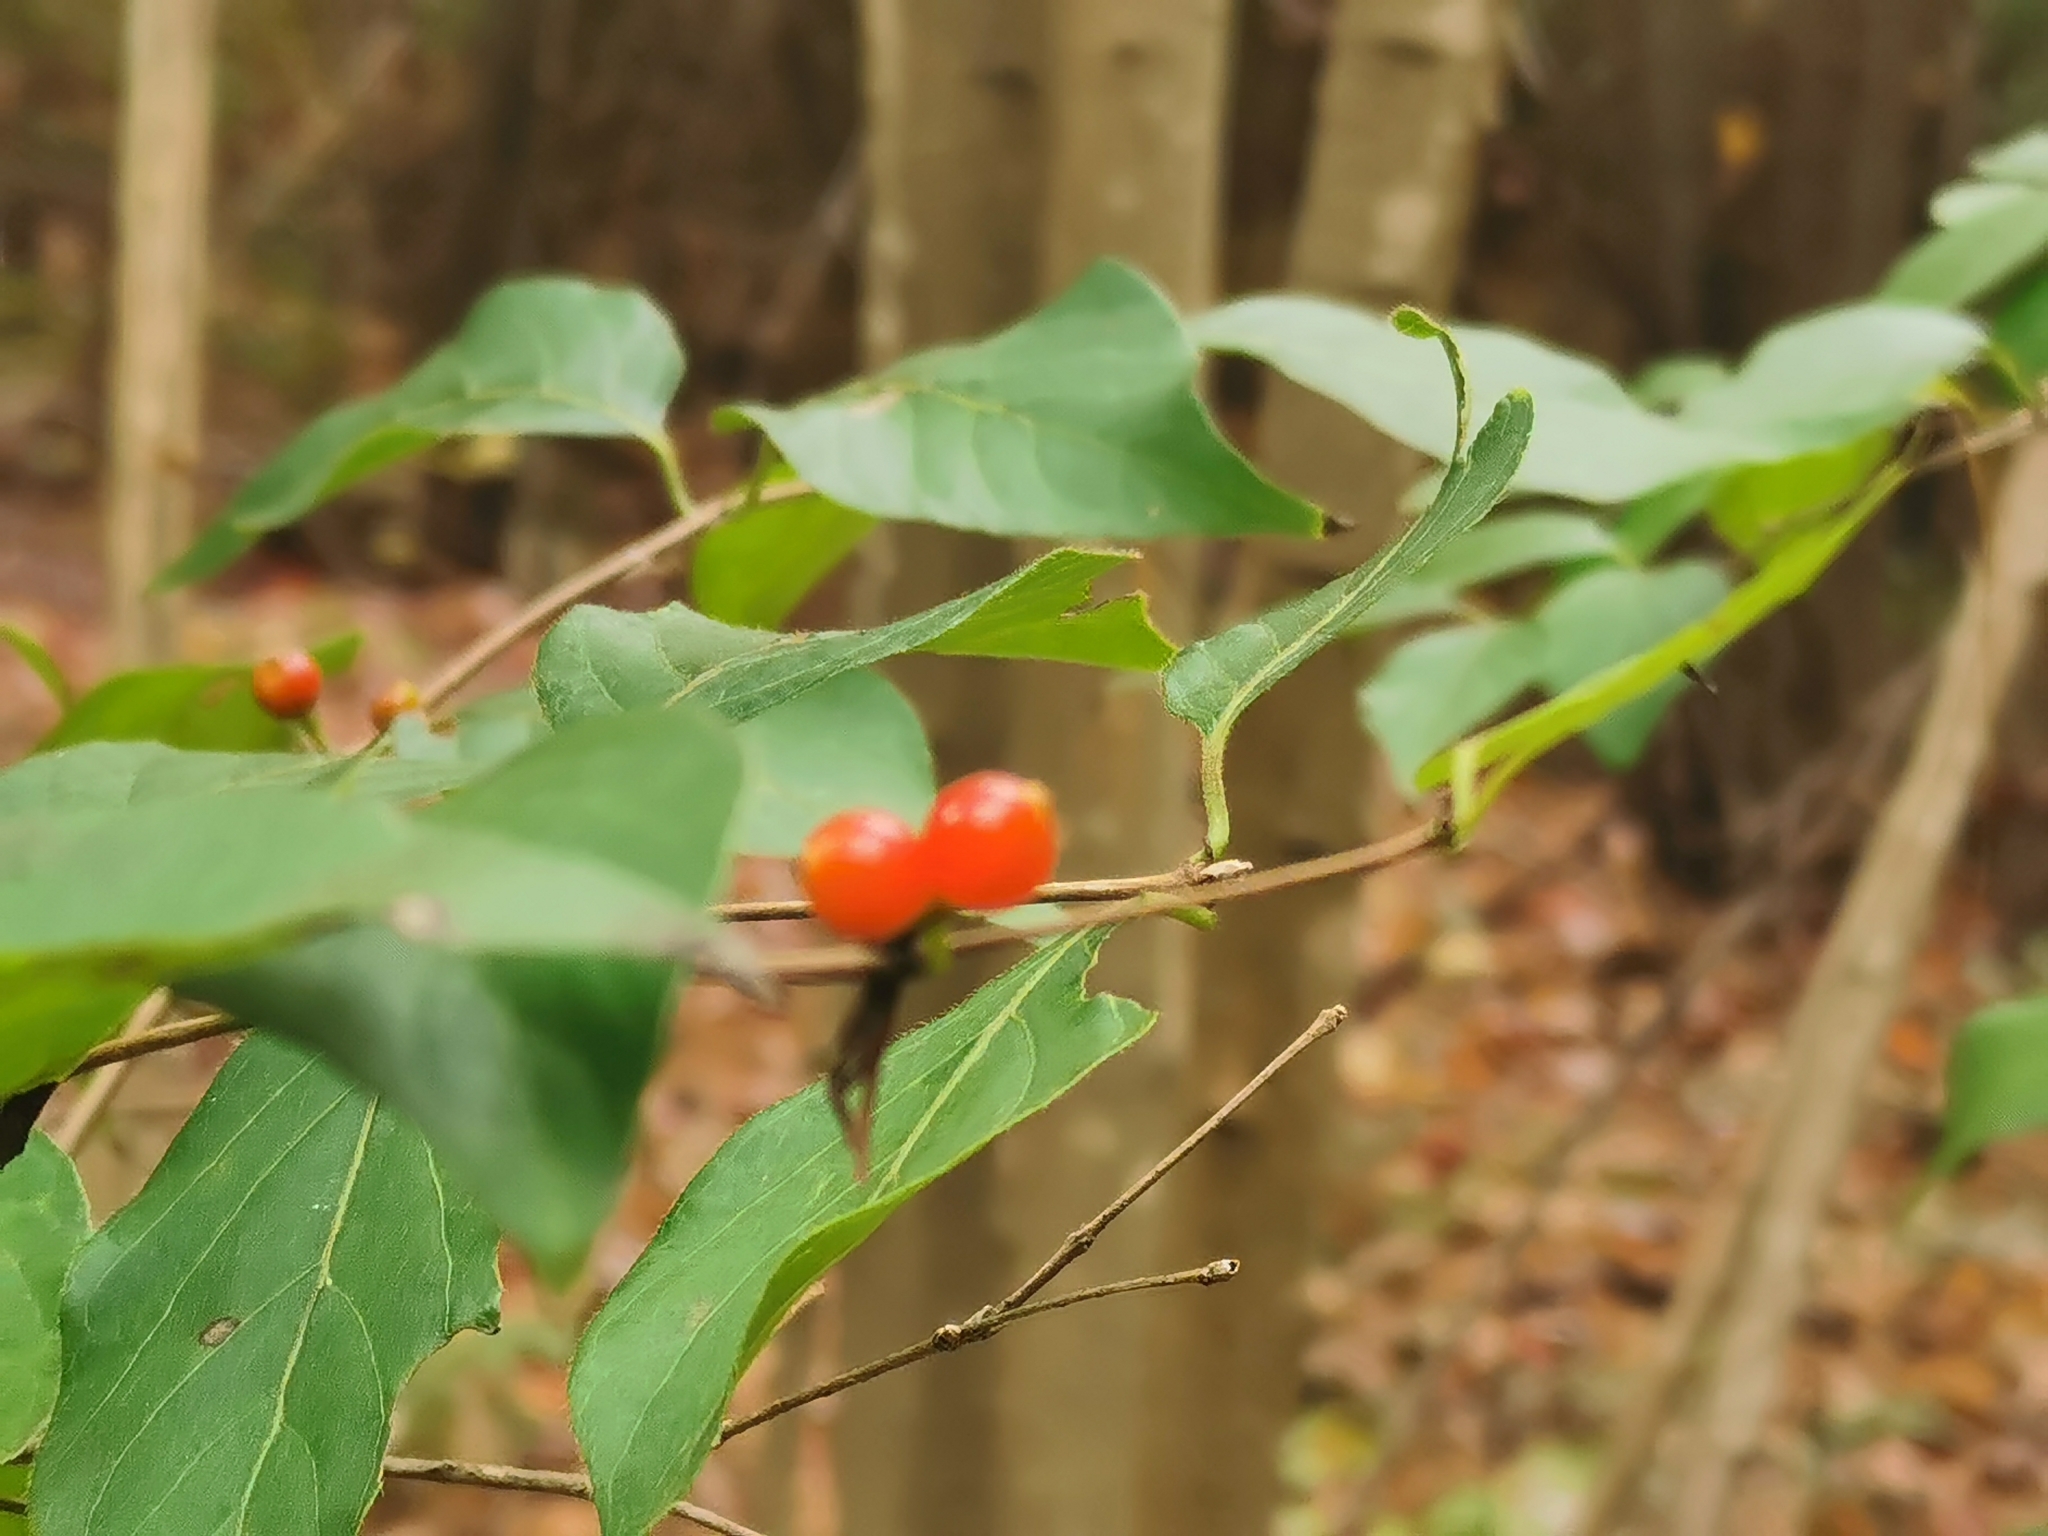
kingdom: Plantae
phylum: Tracheophyta
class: Magnoliopsida
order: Dipsacales
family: Caprifoliaceae
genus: Lonicera
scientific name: Lonicera maackii
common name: Amur honeysuckle
